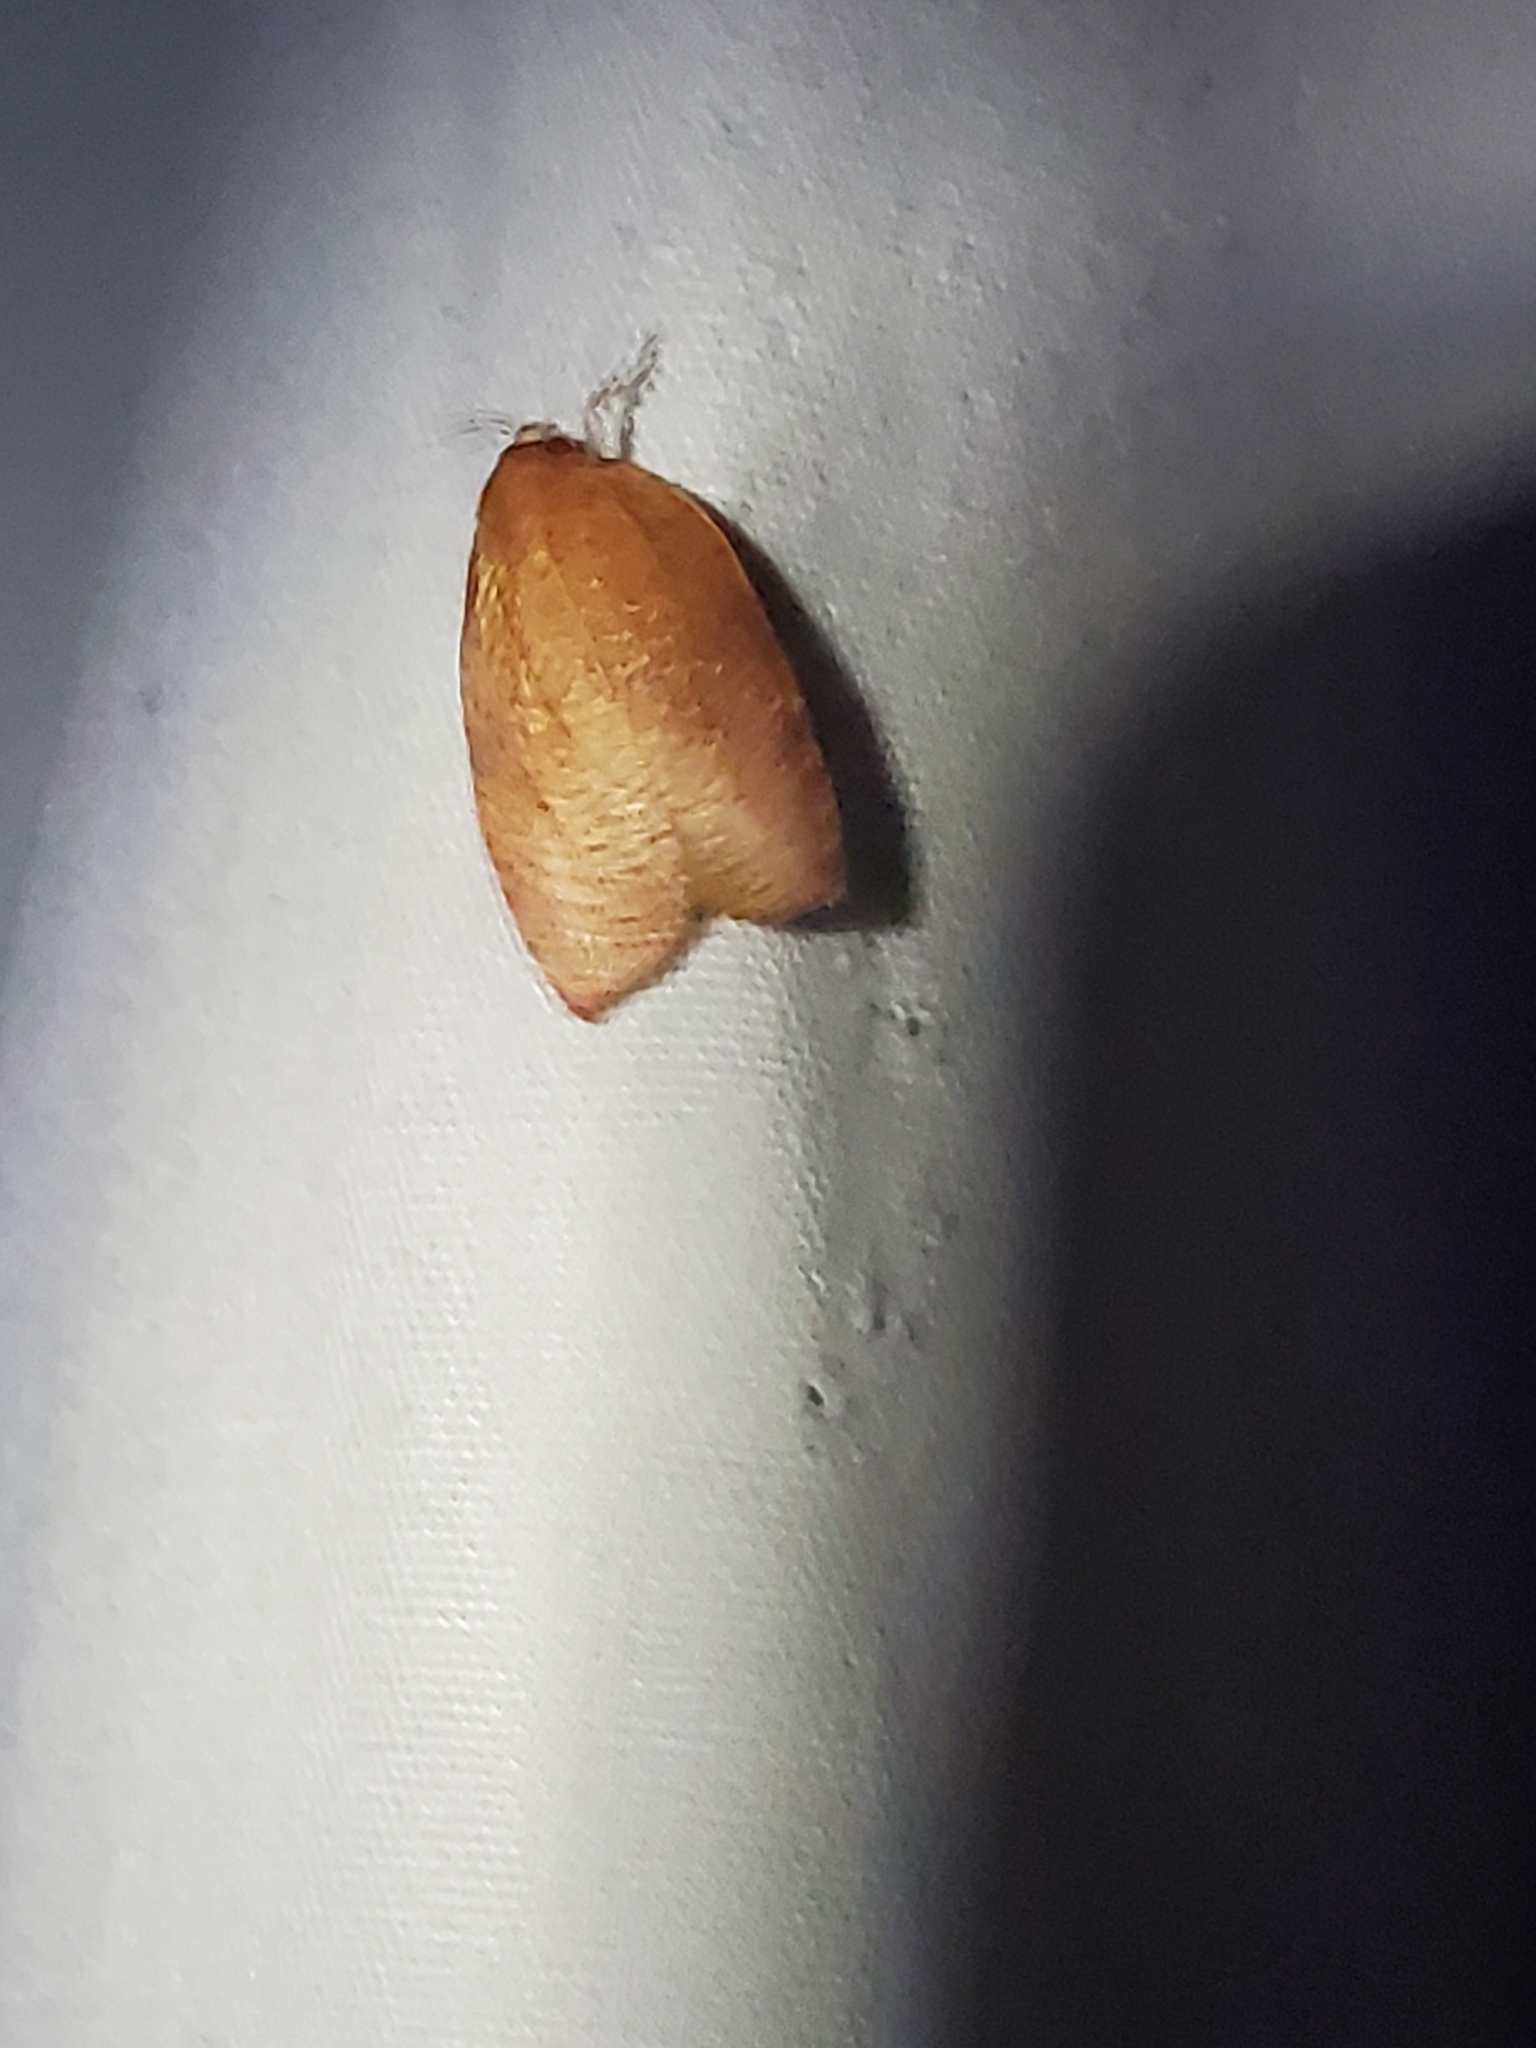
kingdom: Animalia
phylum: Arthropoda
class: Insecta
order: Lepidoptera
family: Tortricidae
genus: Amorbia
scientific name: Amorbia cuneanum
